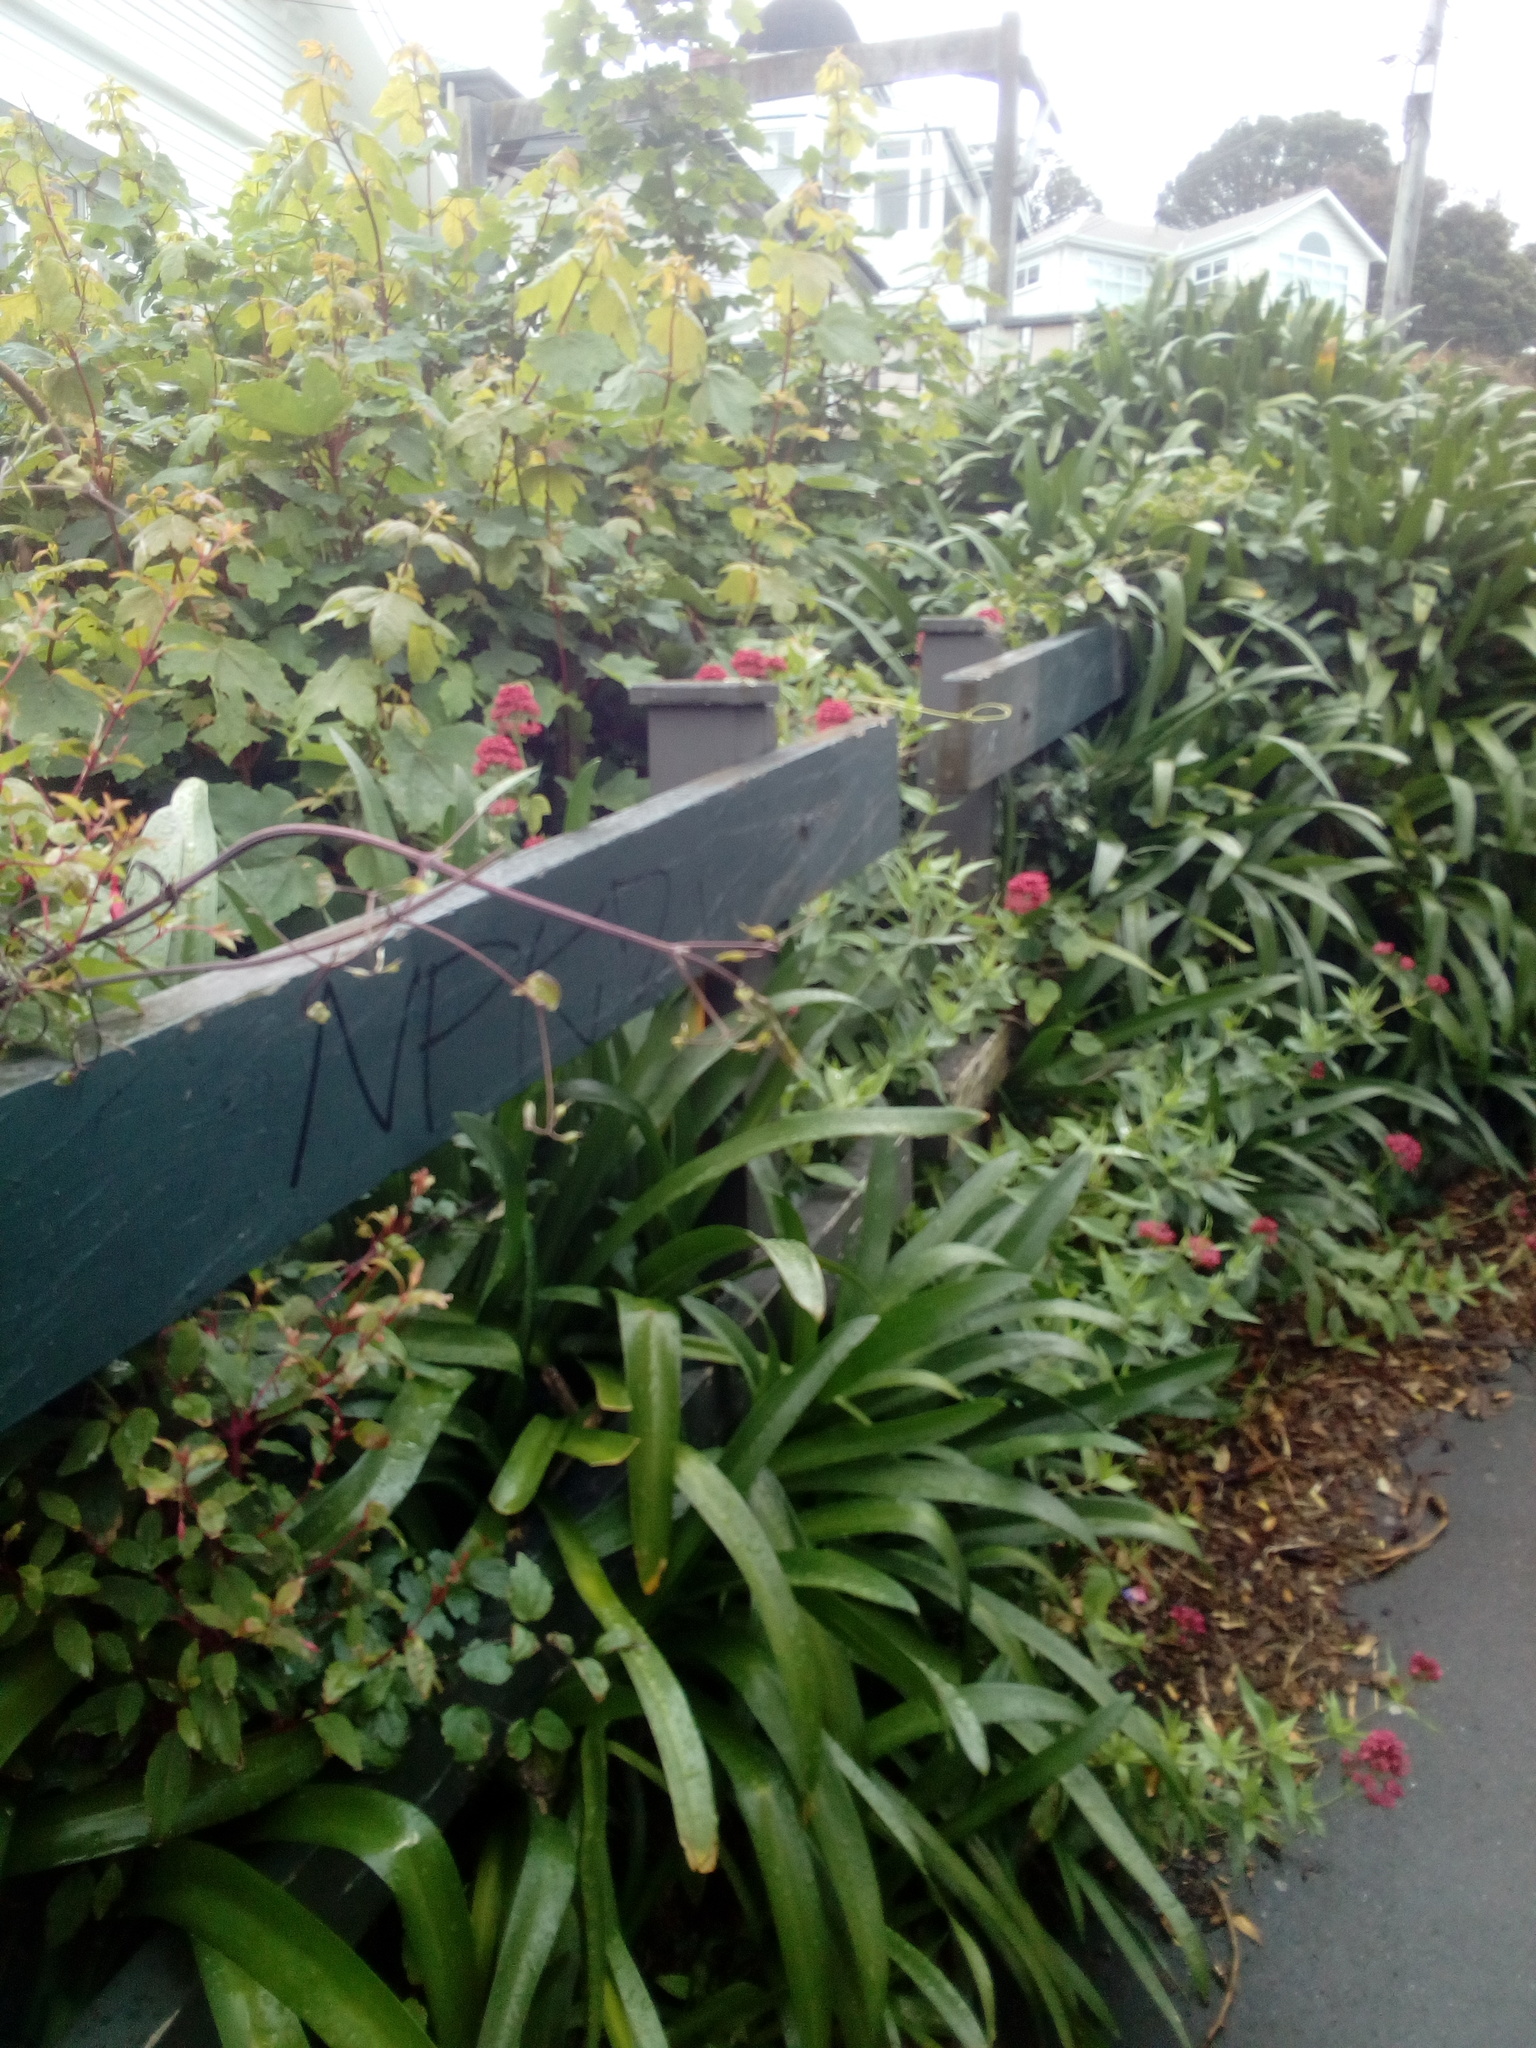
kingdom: Plantae
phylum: Tracheophyta
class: Magnoliopsida
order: Ranunculales
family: Ranunculaceae
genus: Clematis
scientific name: Clematis vitalba
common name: Evergreen clematis
